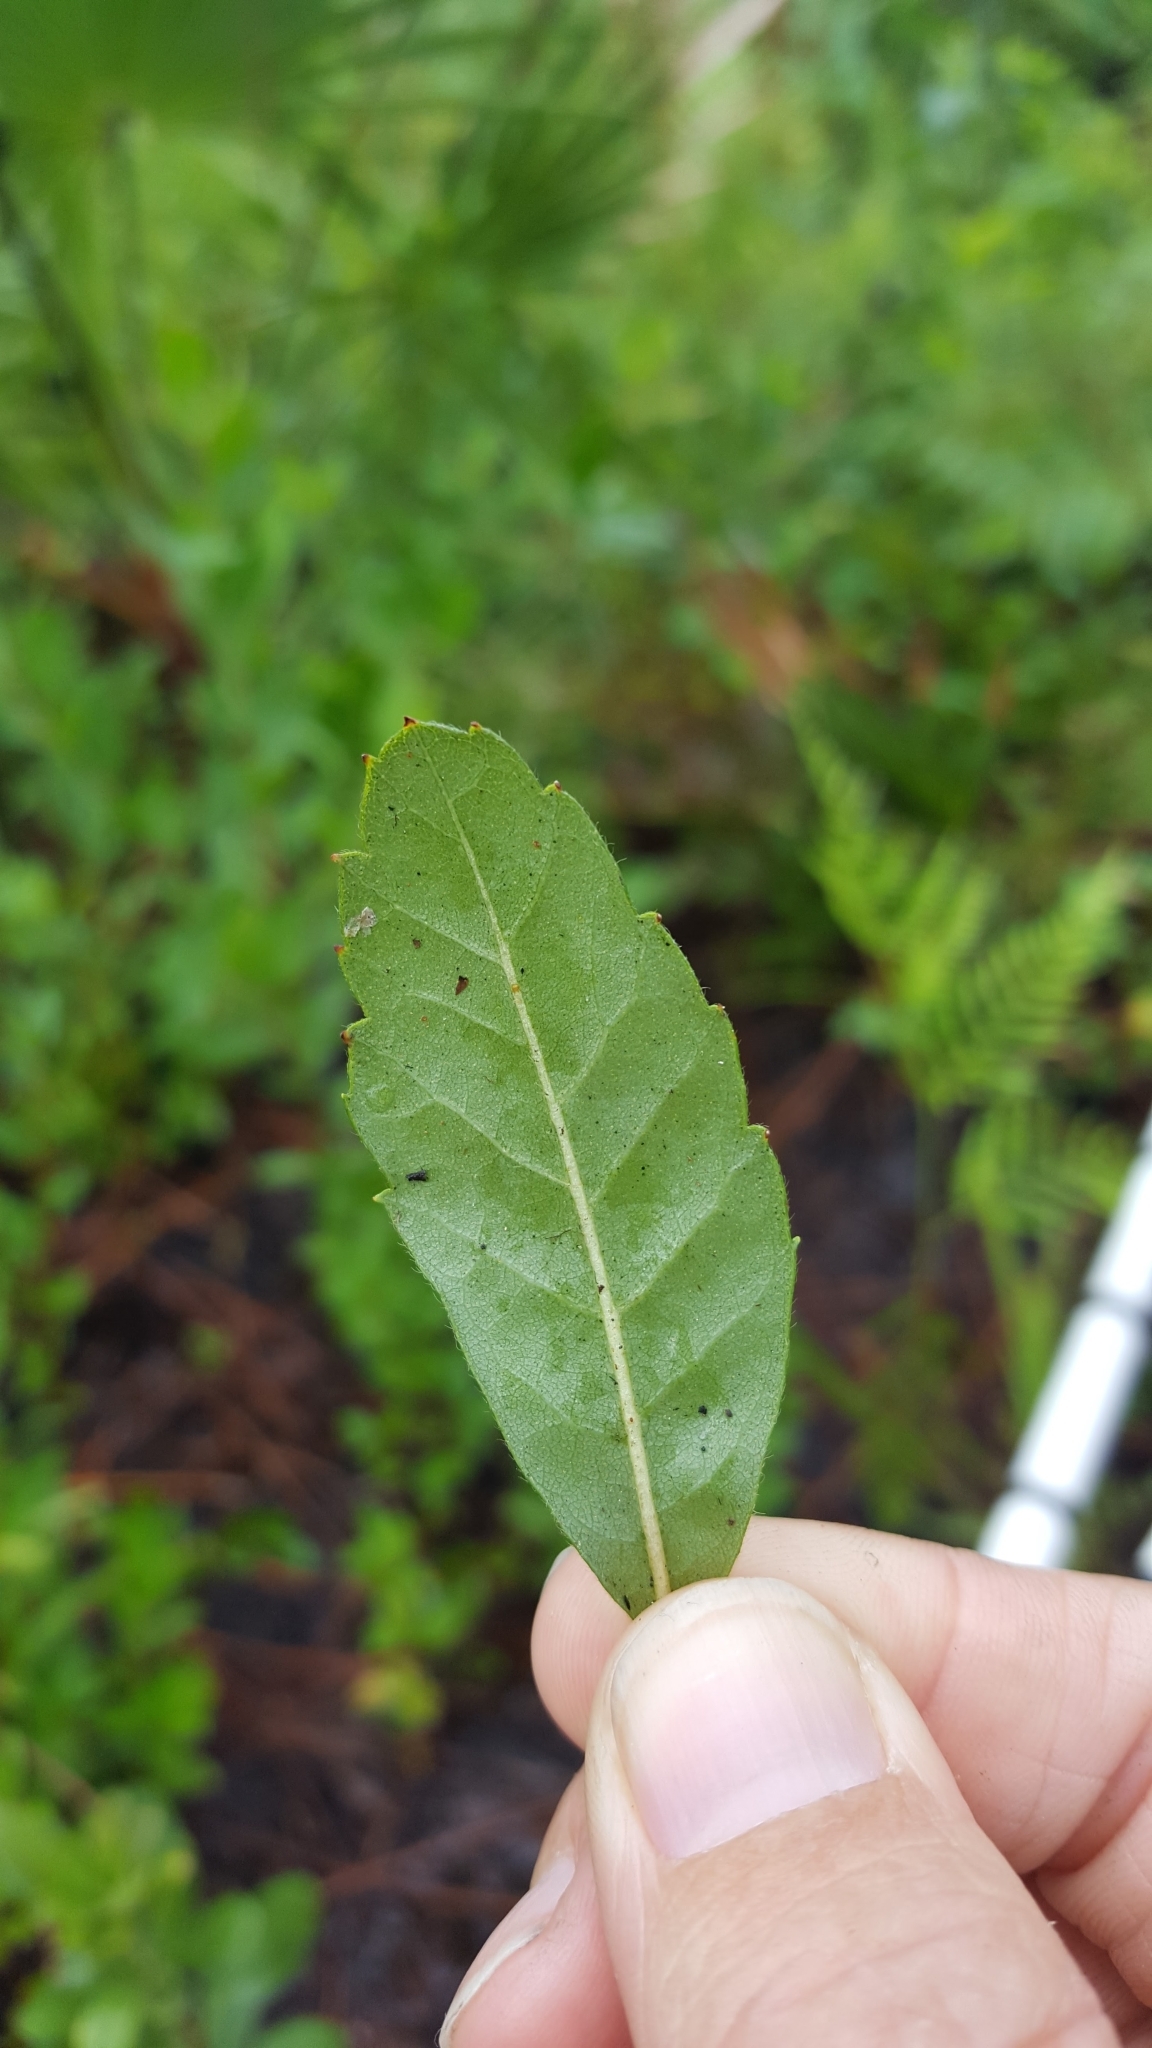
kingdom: Plantae
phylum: Tracheophyta
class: Magnoliopsida
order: Fagales
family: Myricaceae
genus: Morella
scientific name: Morella caroliniensis
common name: Evergreen bayberry
